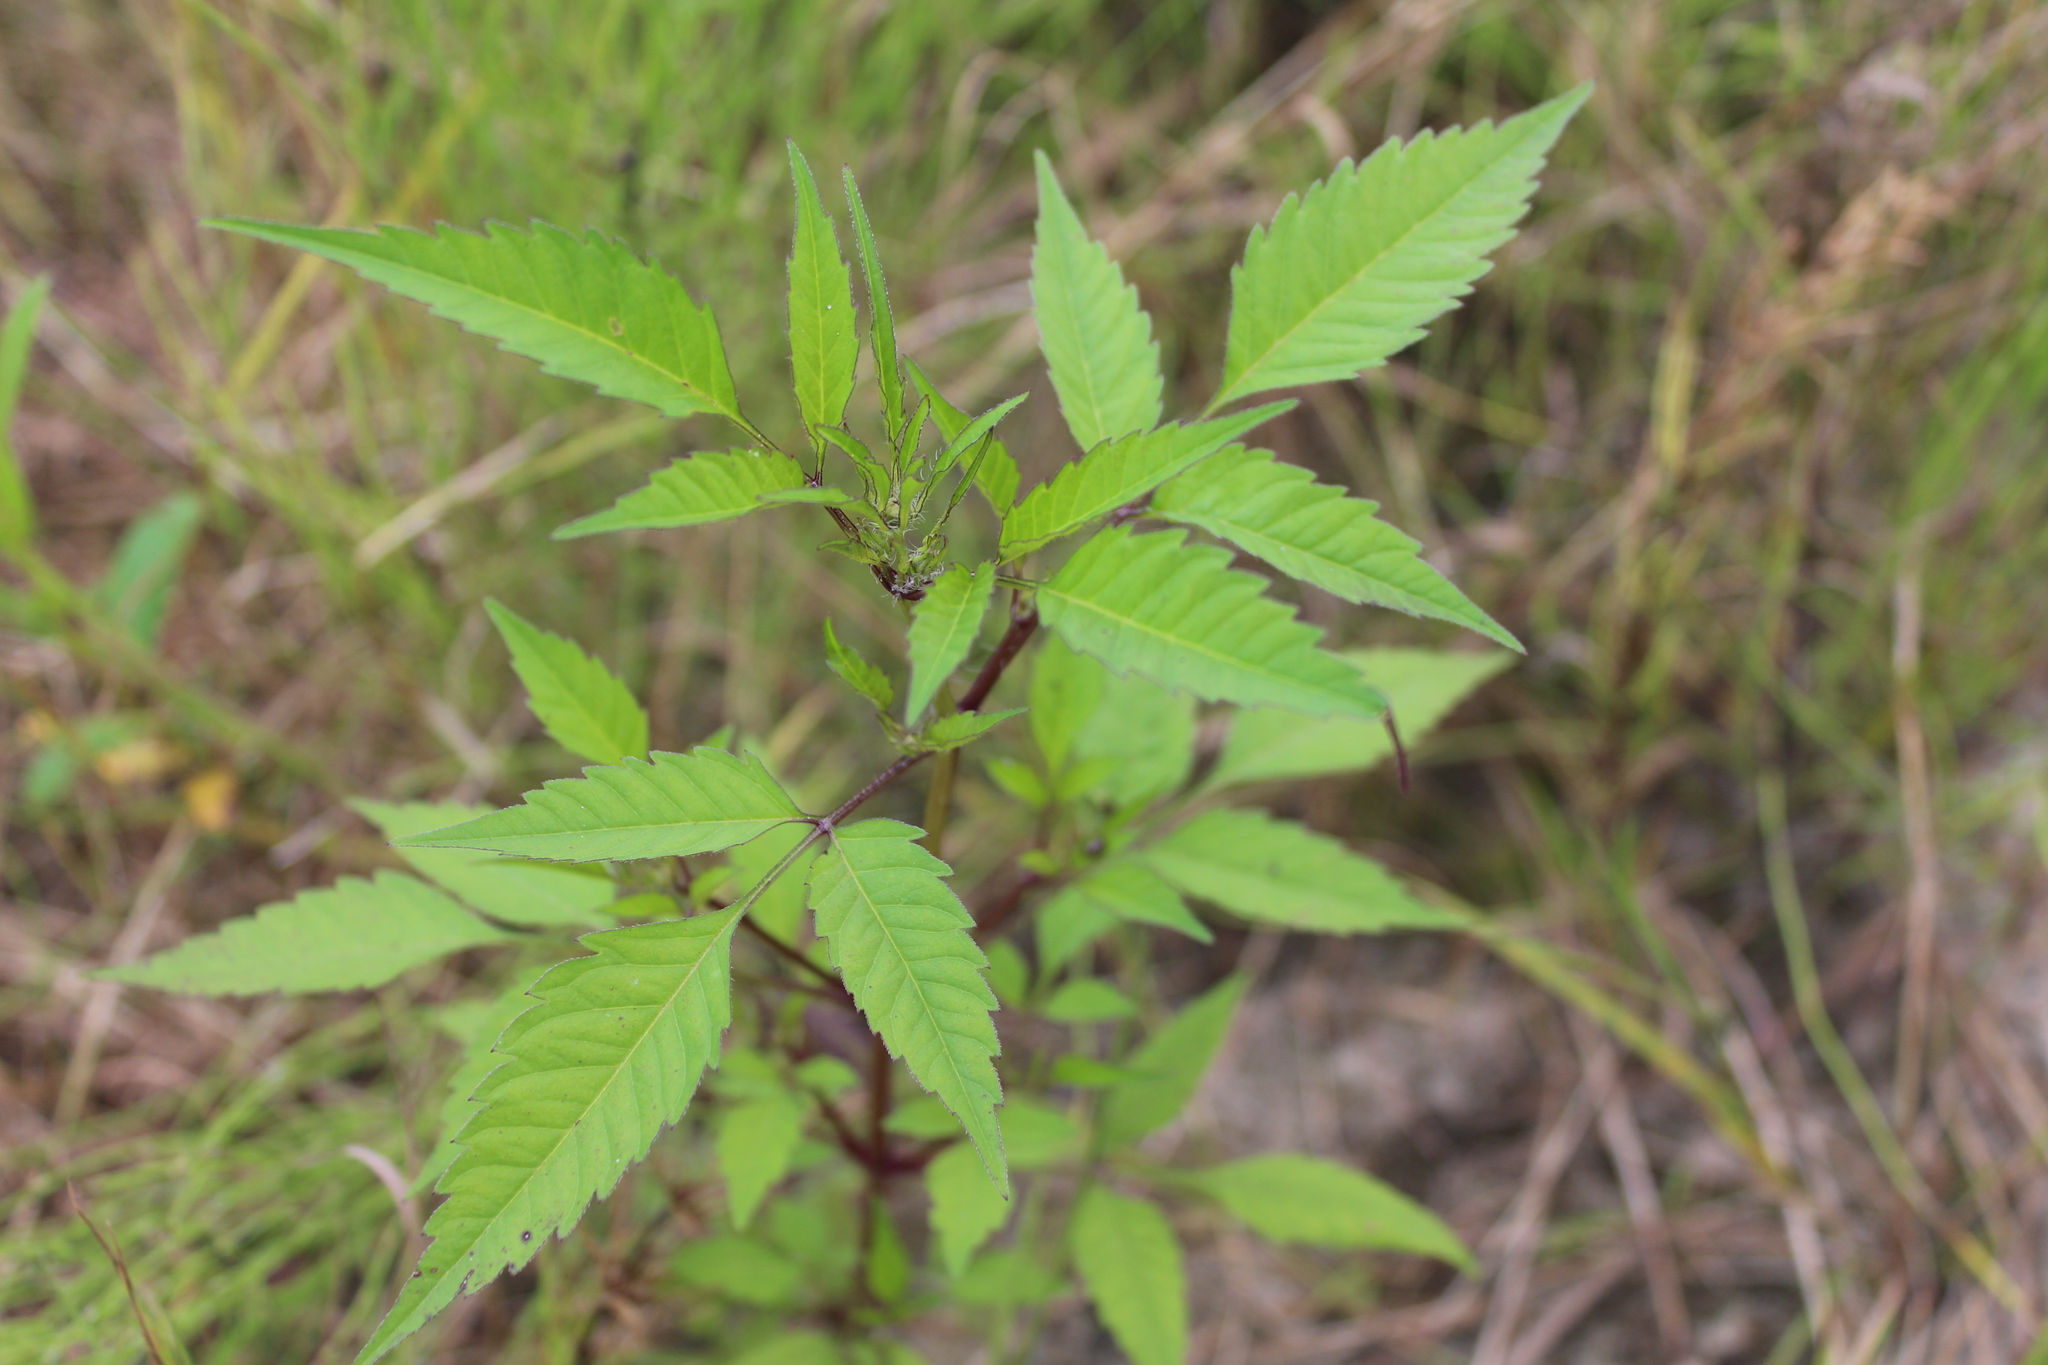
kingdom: Plantae
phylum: Tracheophyta
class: Magnoliopsida
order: Asterales
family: Asteraceae
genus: Bidens
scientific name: Bidens frondosa
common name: Beggarticks
